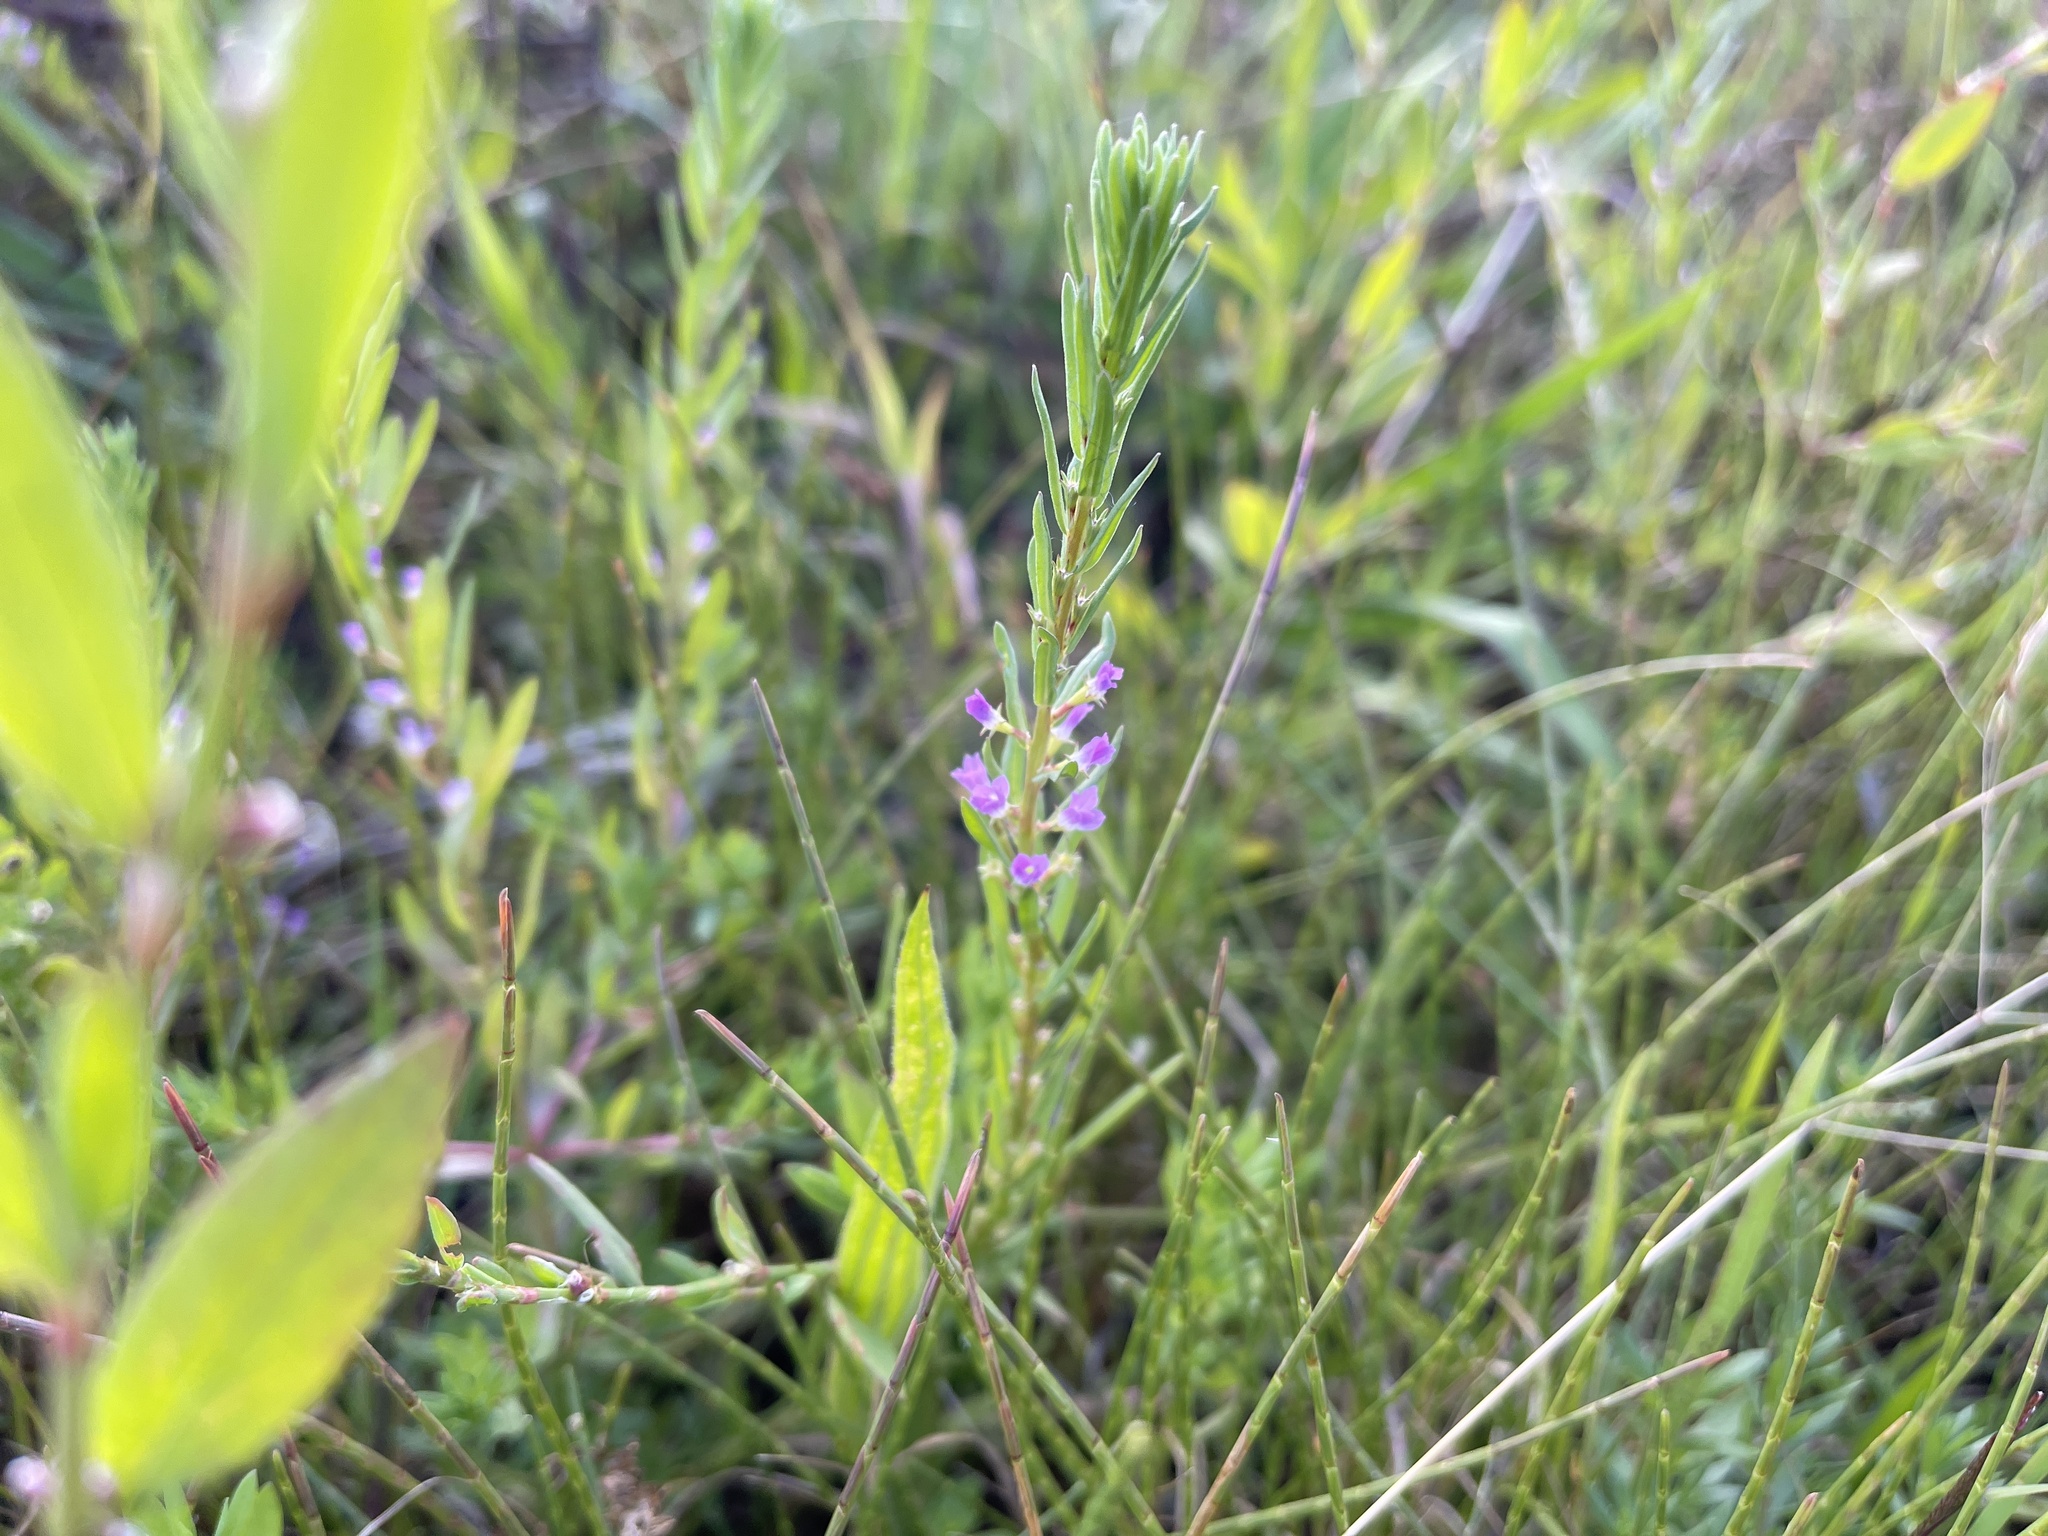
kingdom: Plantae
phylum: Tracheophyta
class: Magnoliopsida
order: Myrtales
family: Lythraceae
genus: Lythrum
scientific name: Lythrum hyssopifolia
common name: Grass-poly
